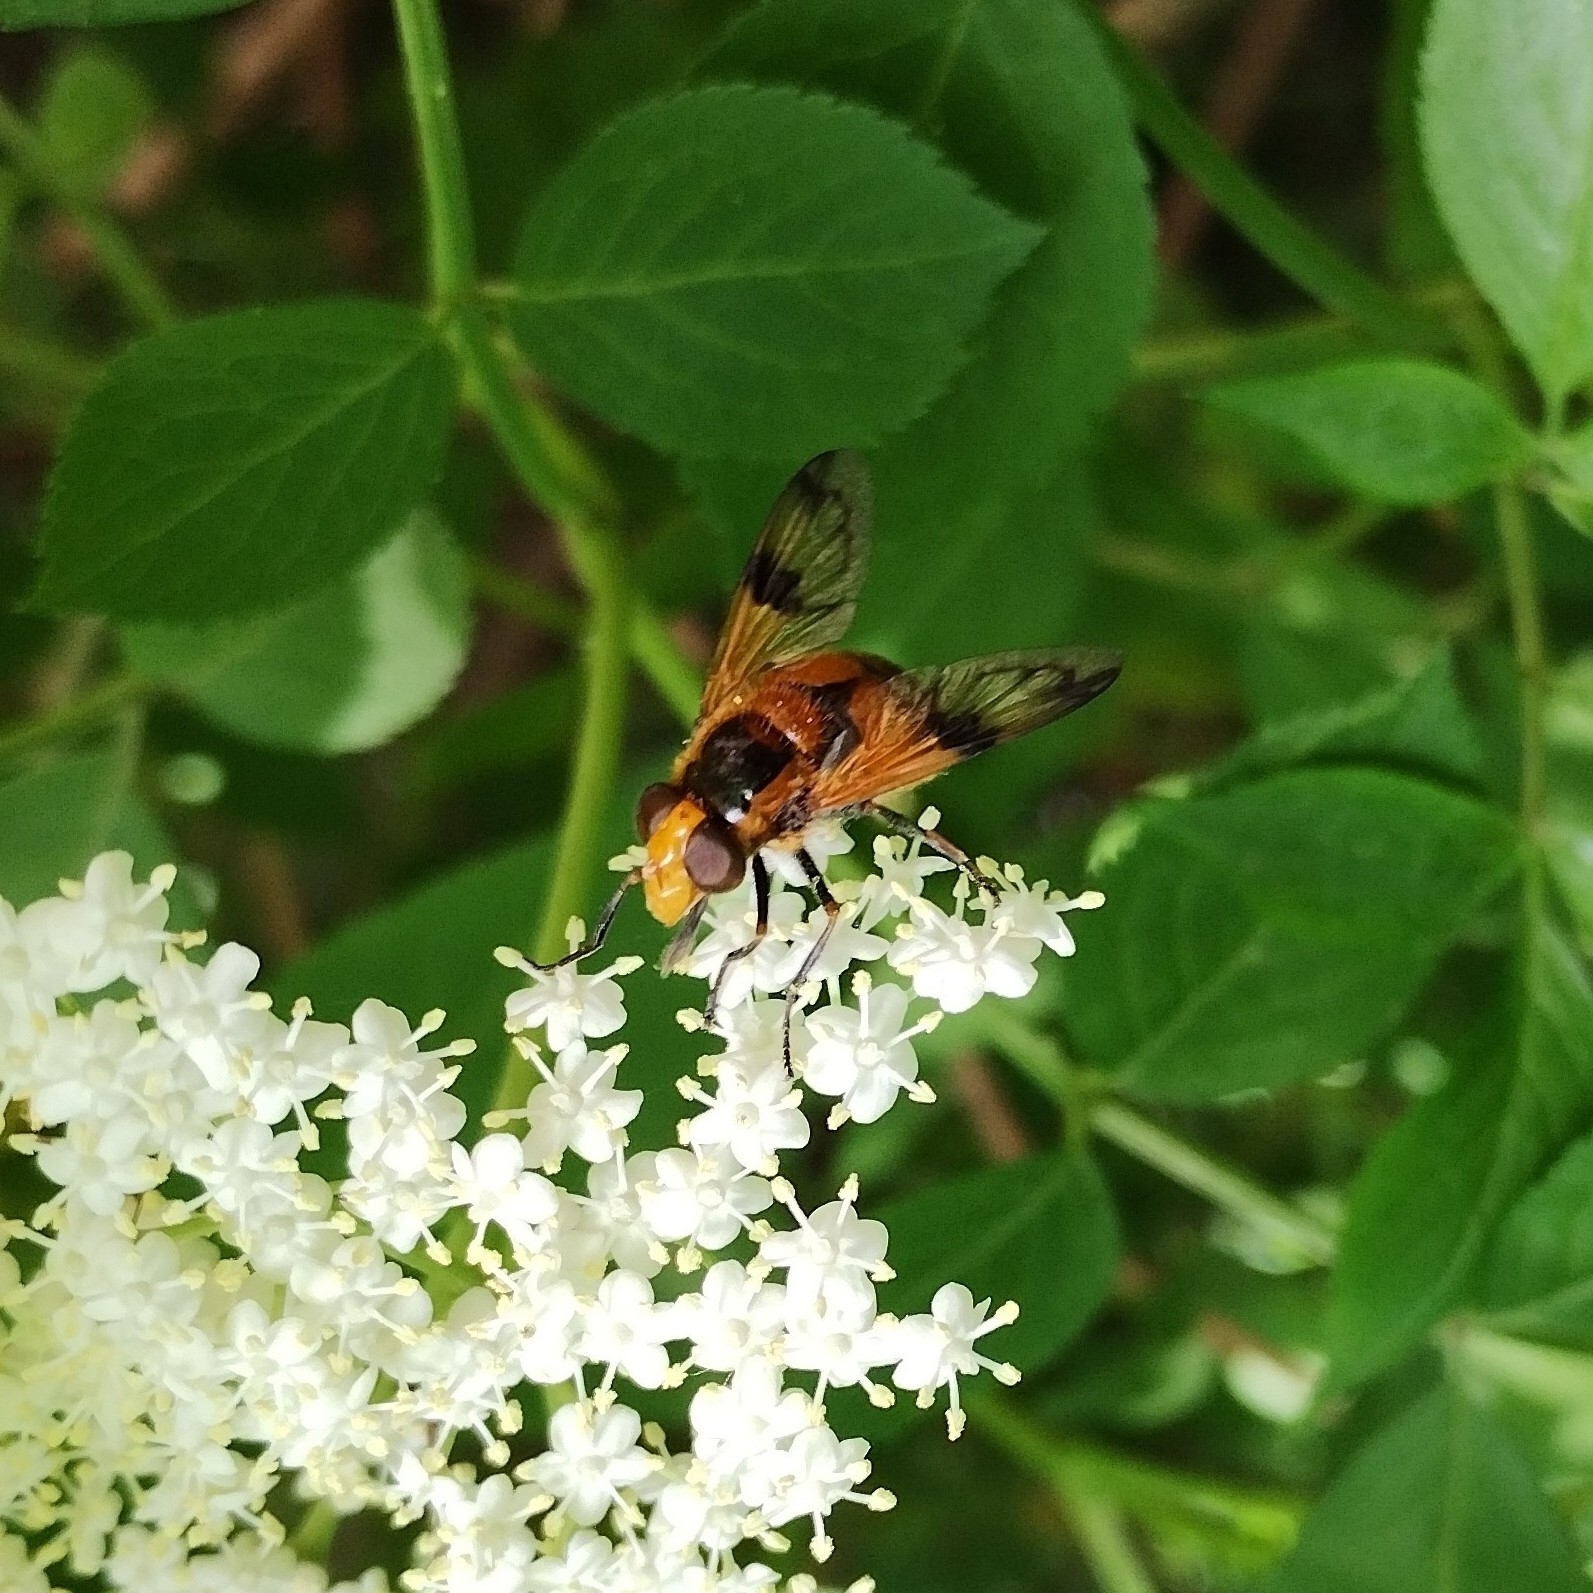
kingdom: Animalia
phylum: Arthropoda
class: Insecta
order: Diptera
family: Syrphidae
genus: Volucella
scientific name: Volucella inflata
